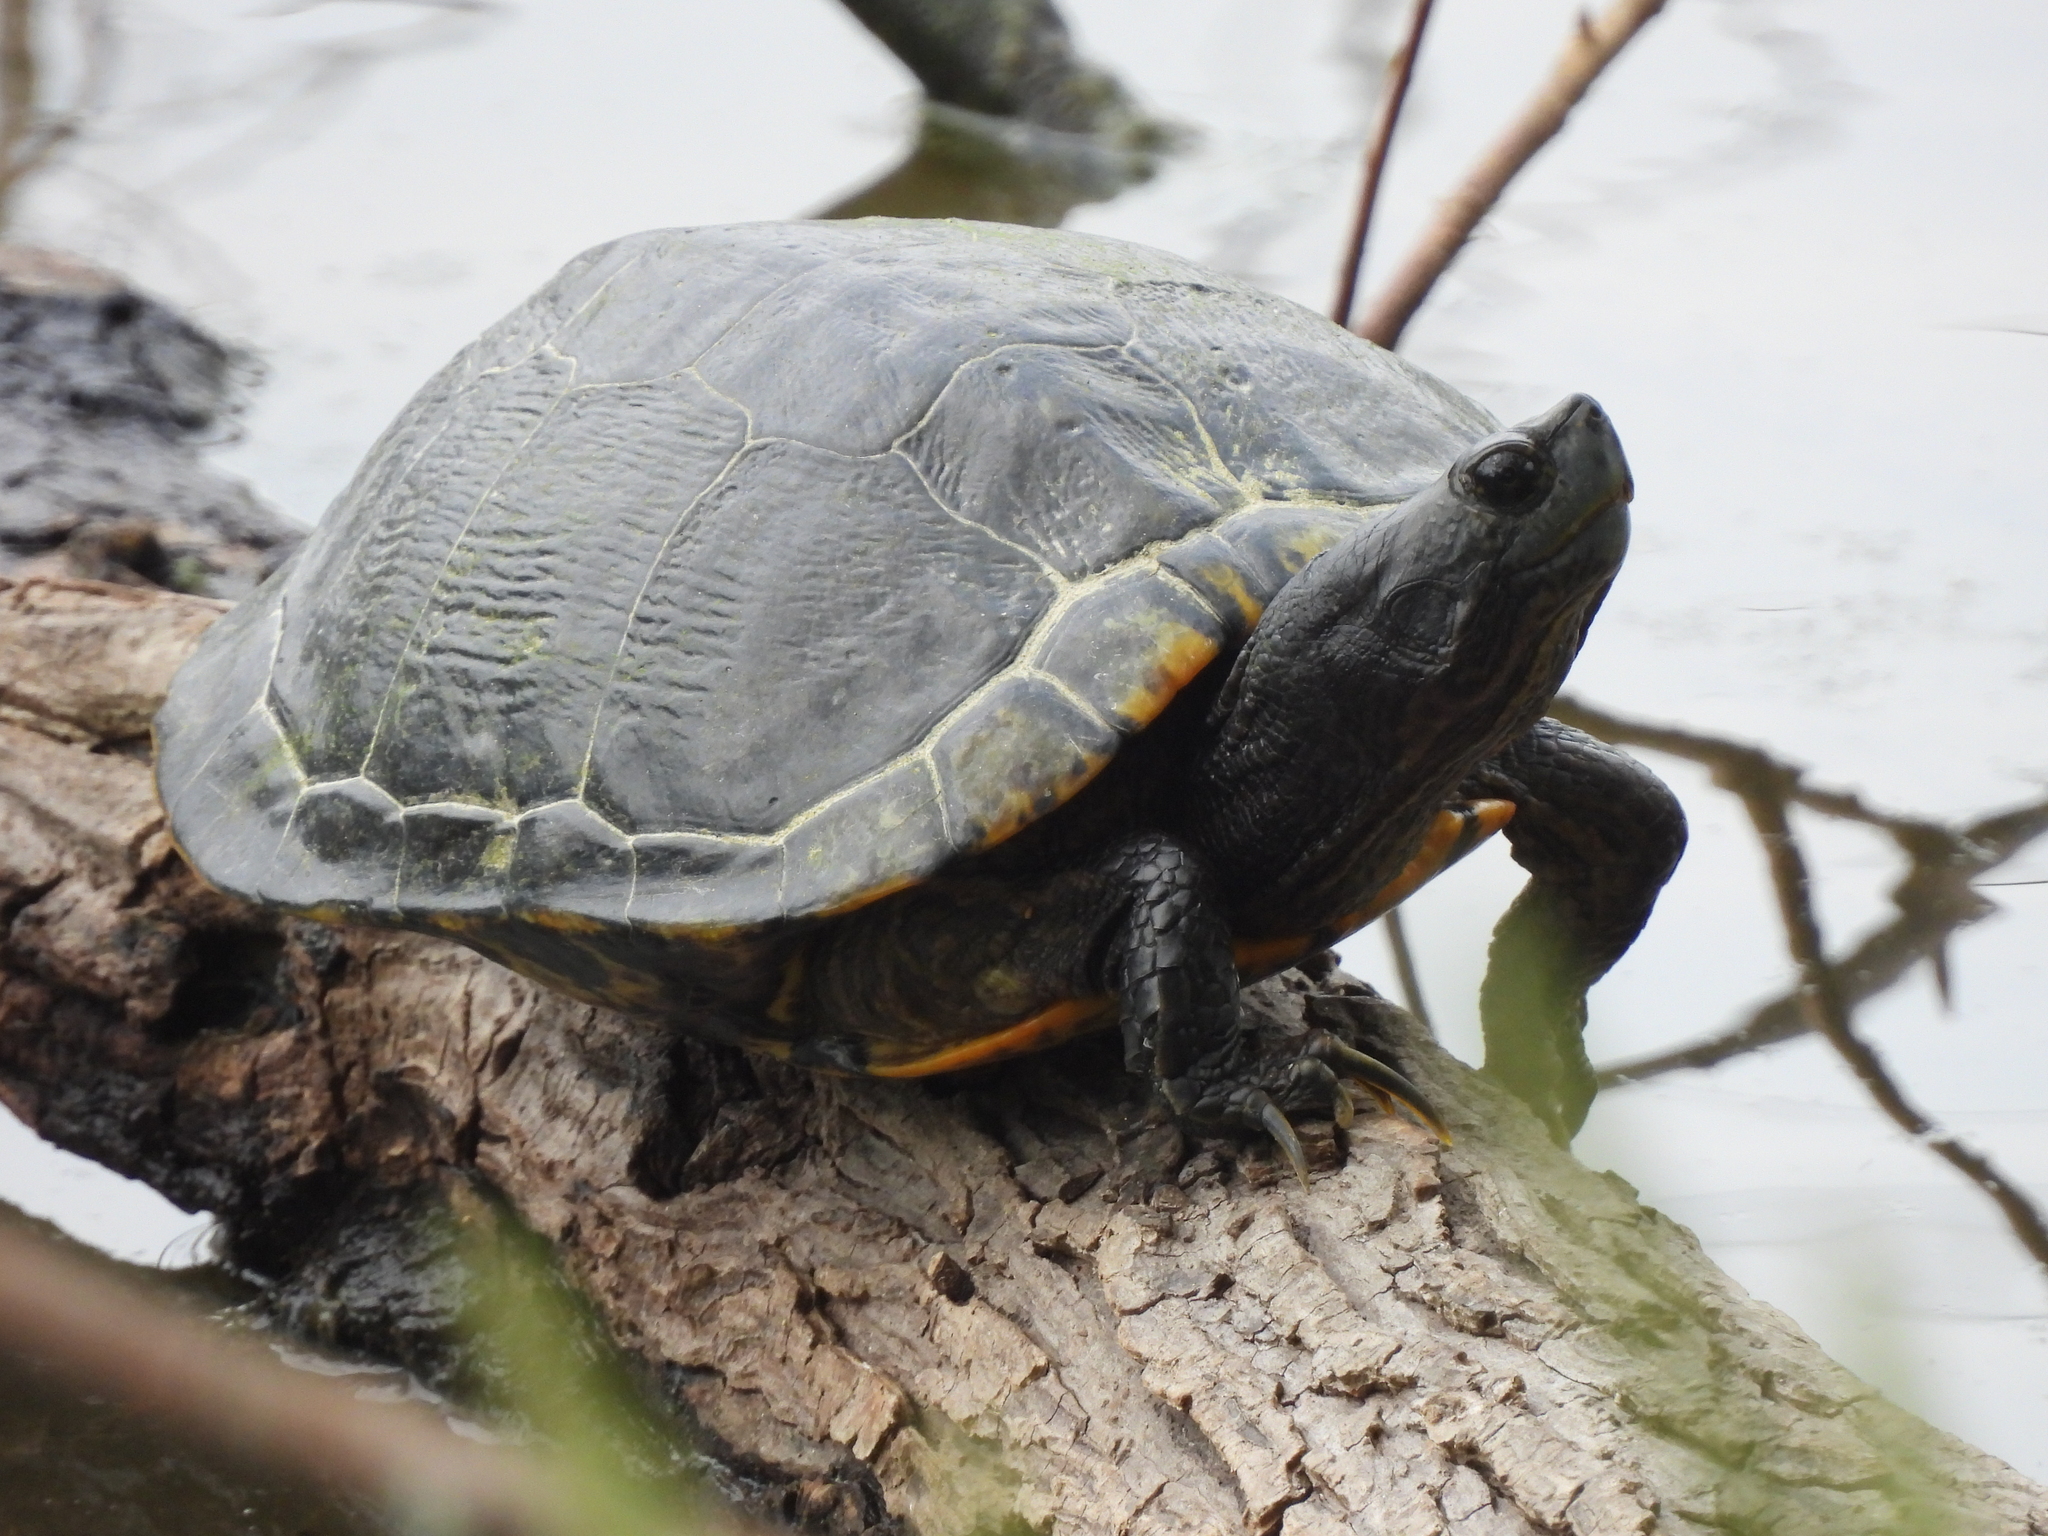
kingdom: Animalia
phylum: Chordata
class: Testudines
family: Emydidae
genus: Trachemys
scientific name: Trachemys scripta
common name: Slider
